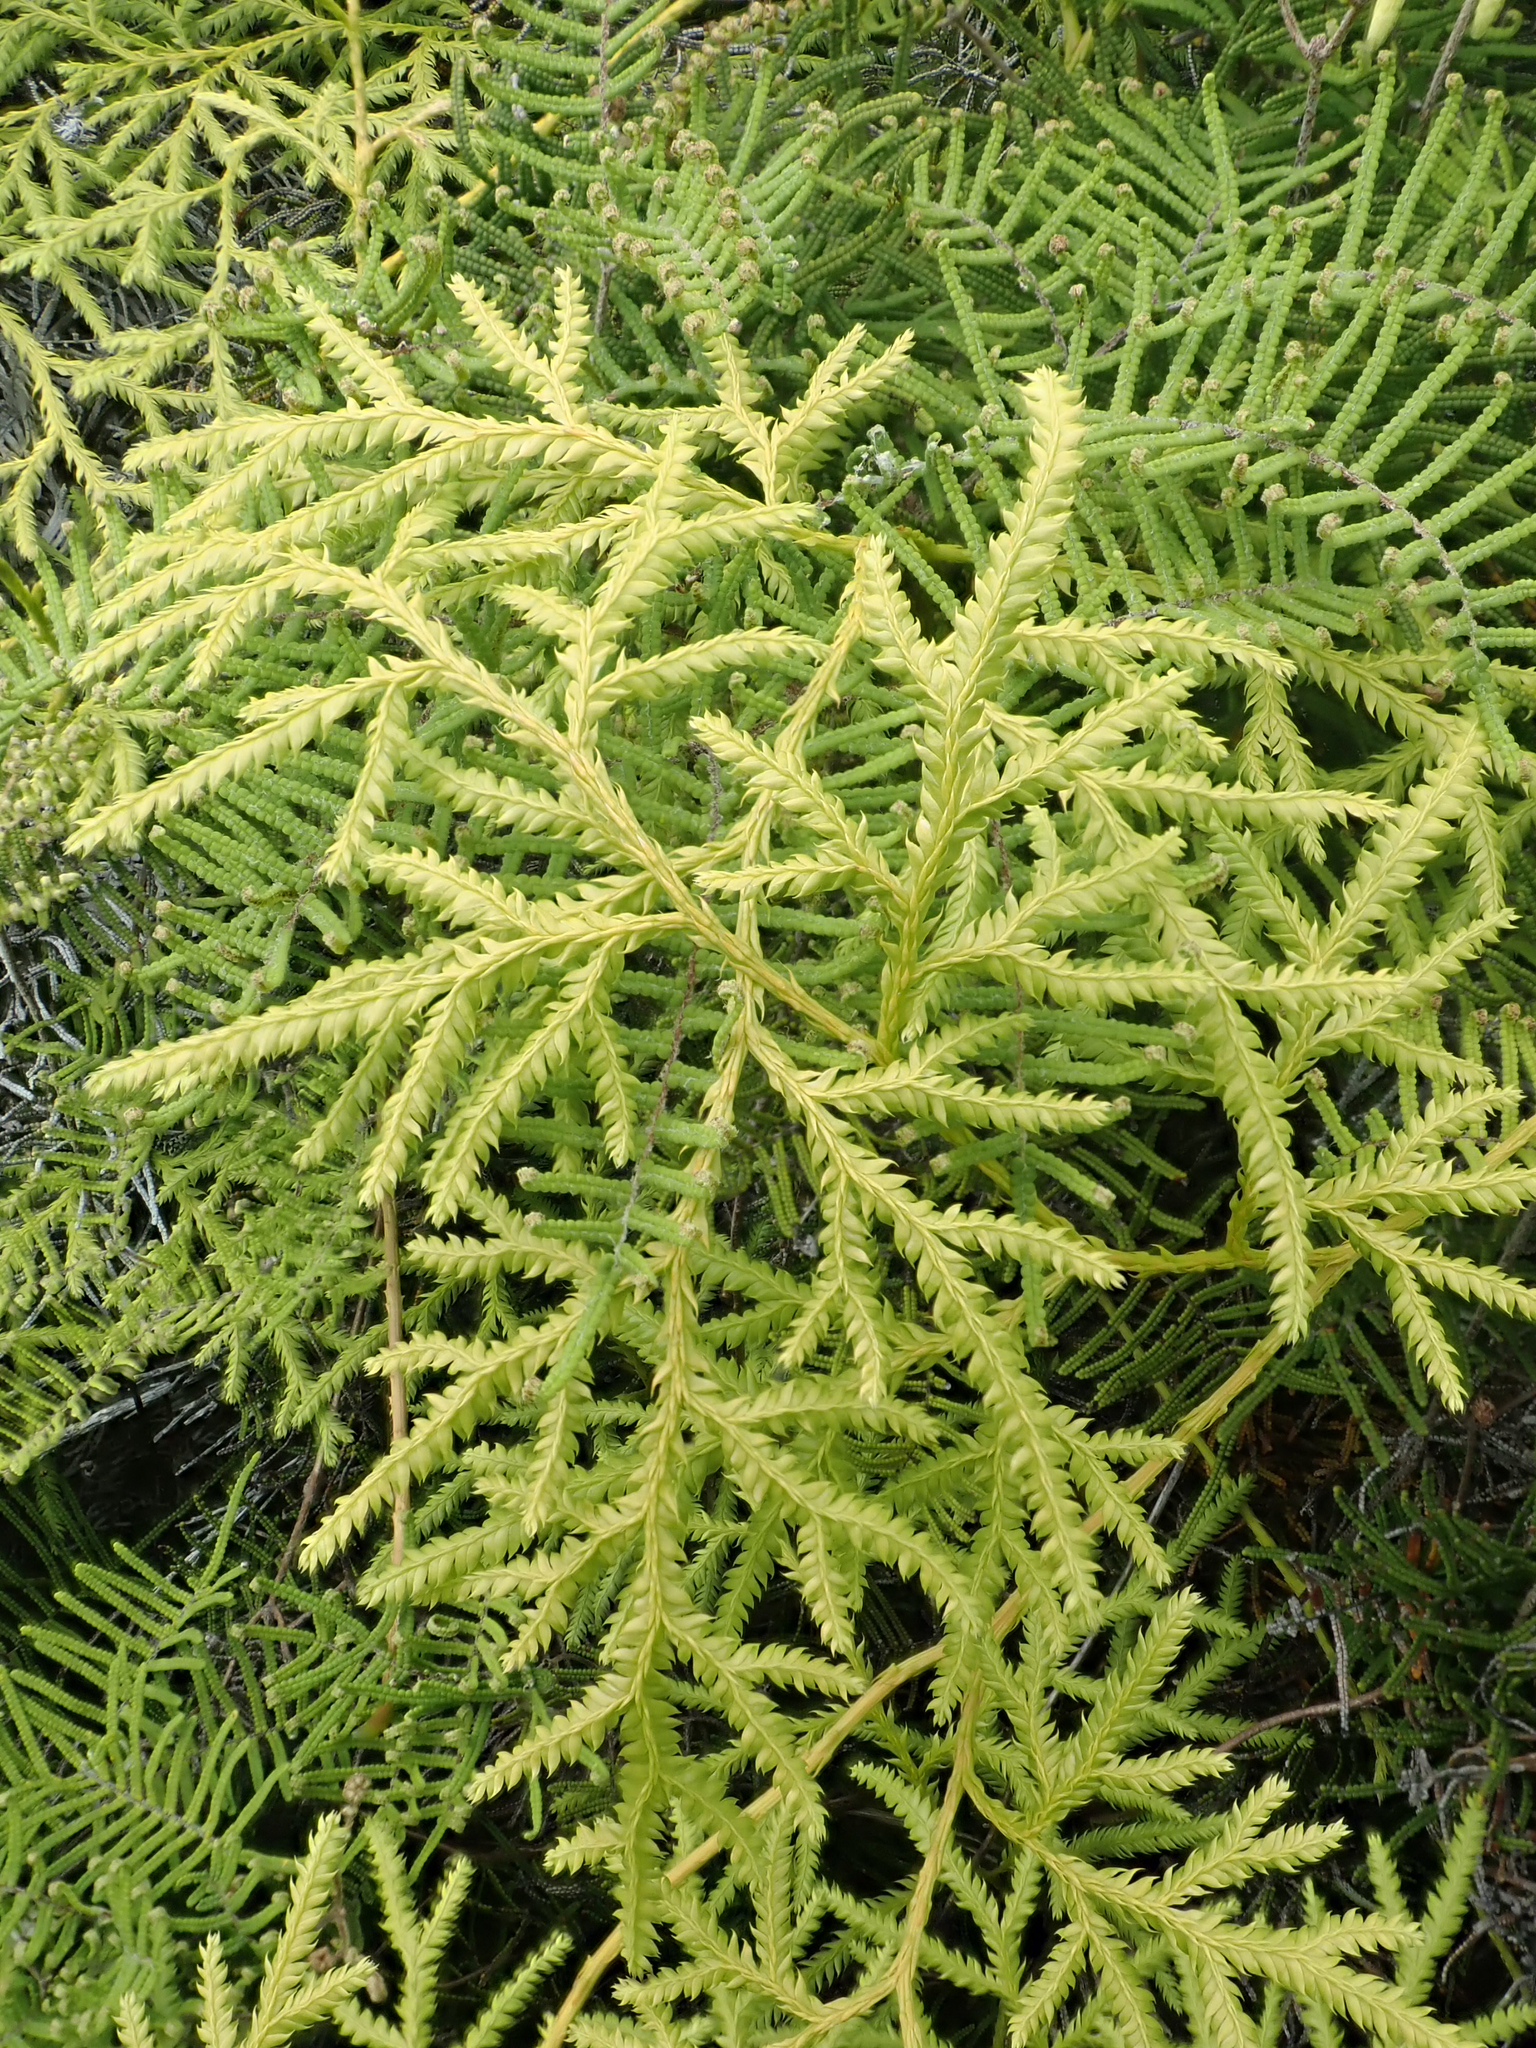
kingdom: Plantae
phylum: Tracheophyta
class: Lycopodiopsida
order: Lycopodiales
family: Lycopodiaceae
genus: Lycopodium
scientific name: Lycopodium volubile
